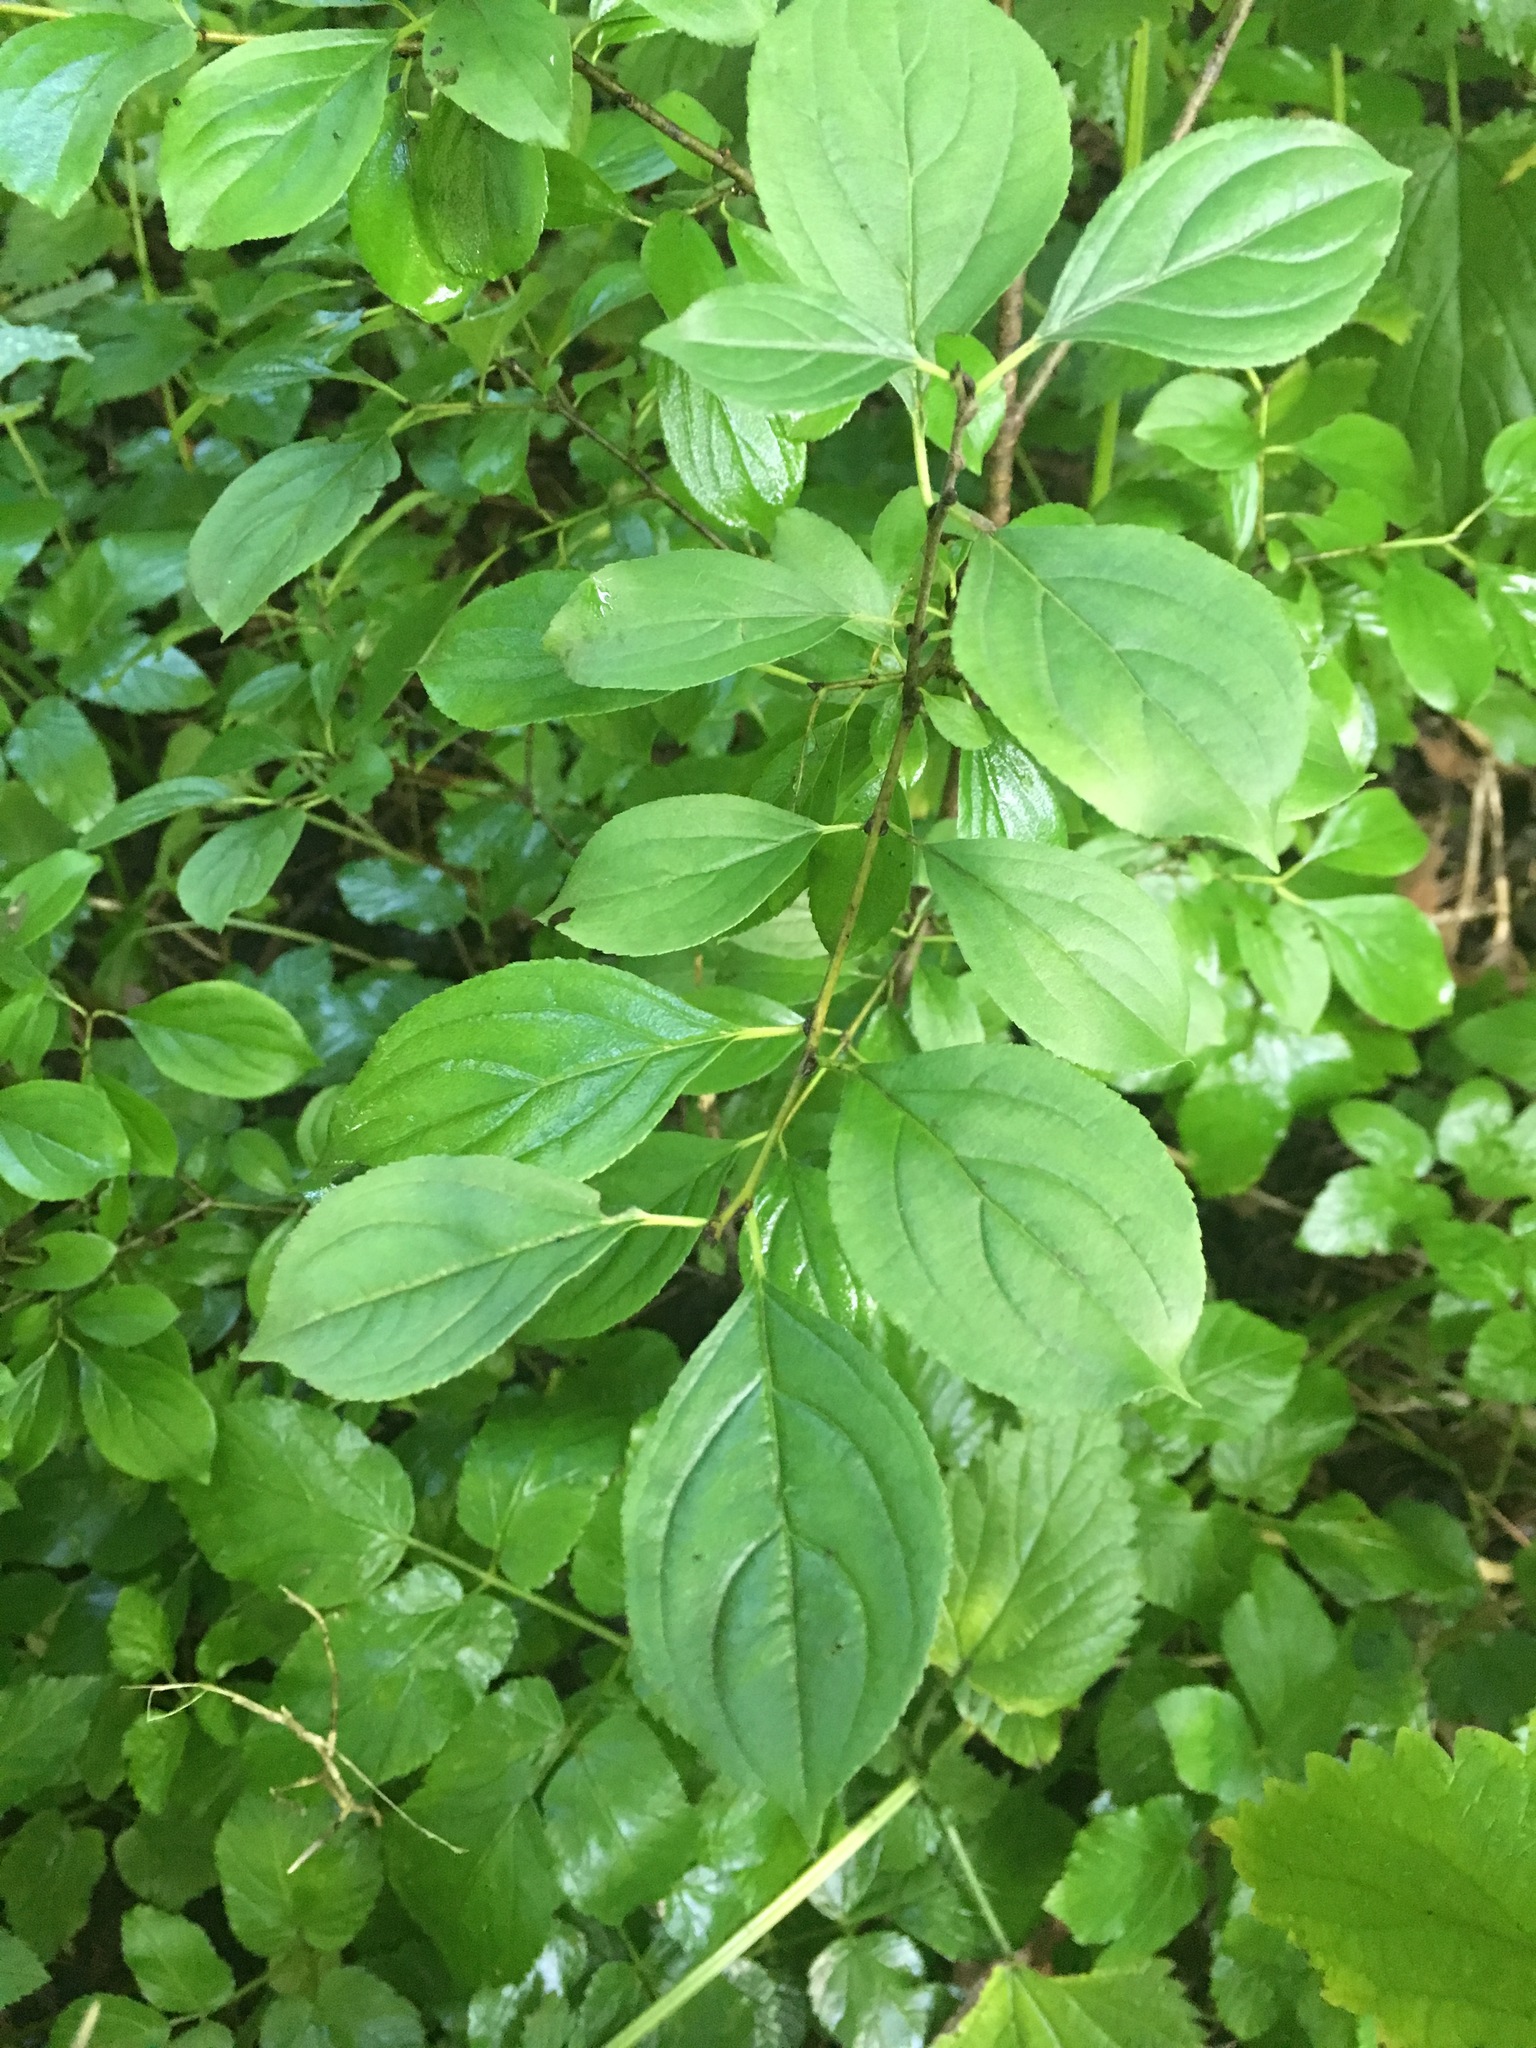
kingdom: Plantae
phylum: Tracheophyta
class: Magnoliopsida
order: Rosales
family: Rhamnaceae
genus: Rhamnus
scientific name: Rhamnus cathartica
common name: Common buckthorn
